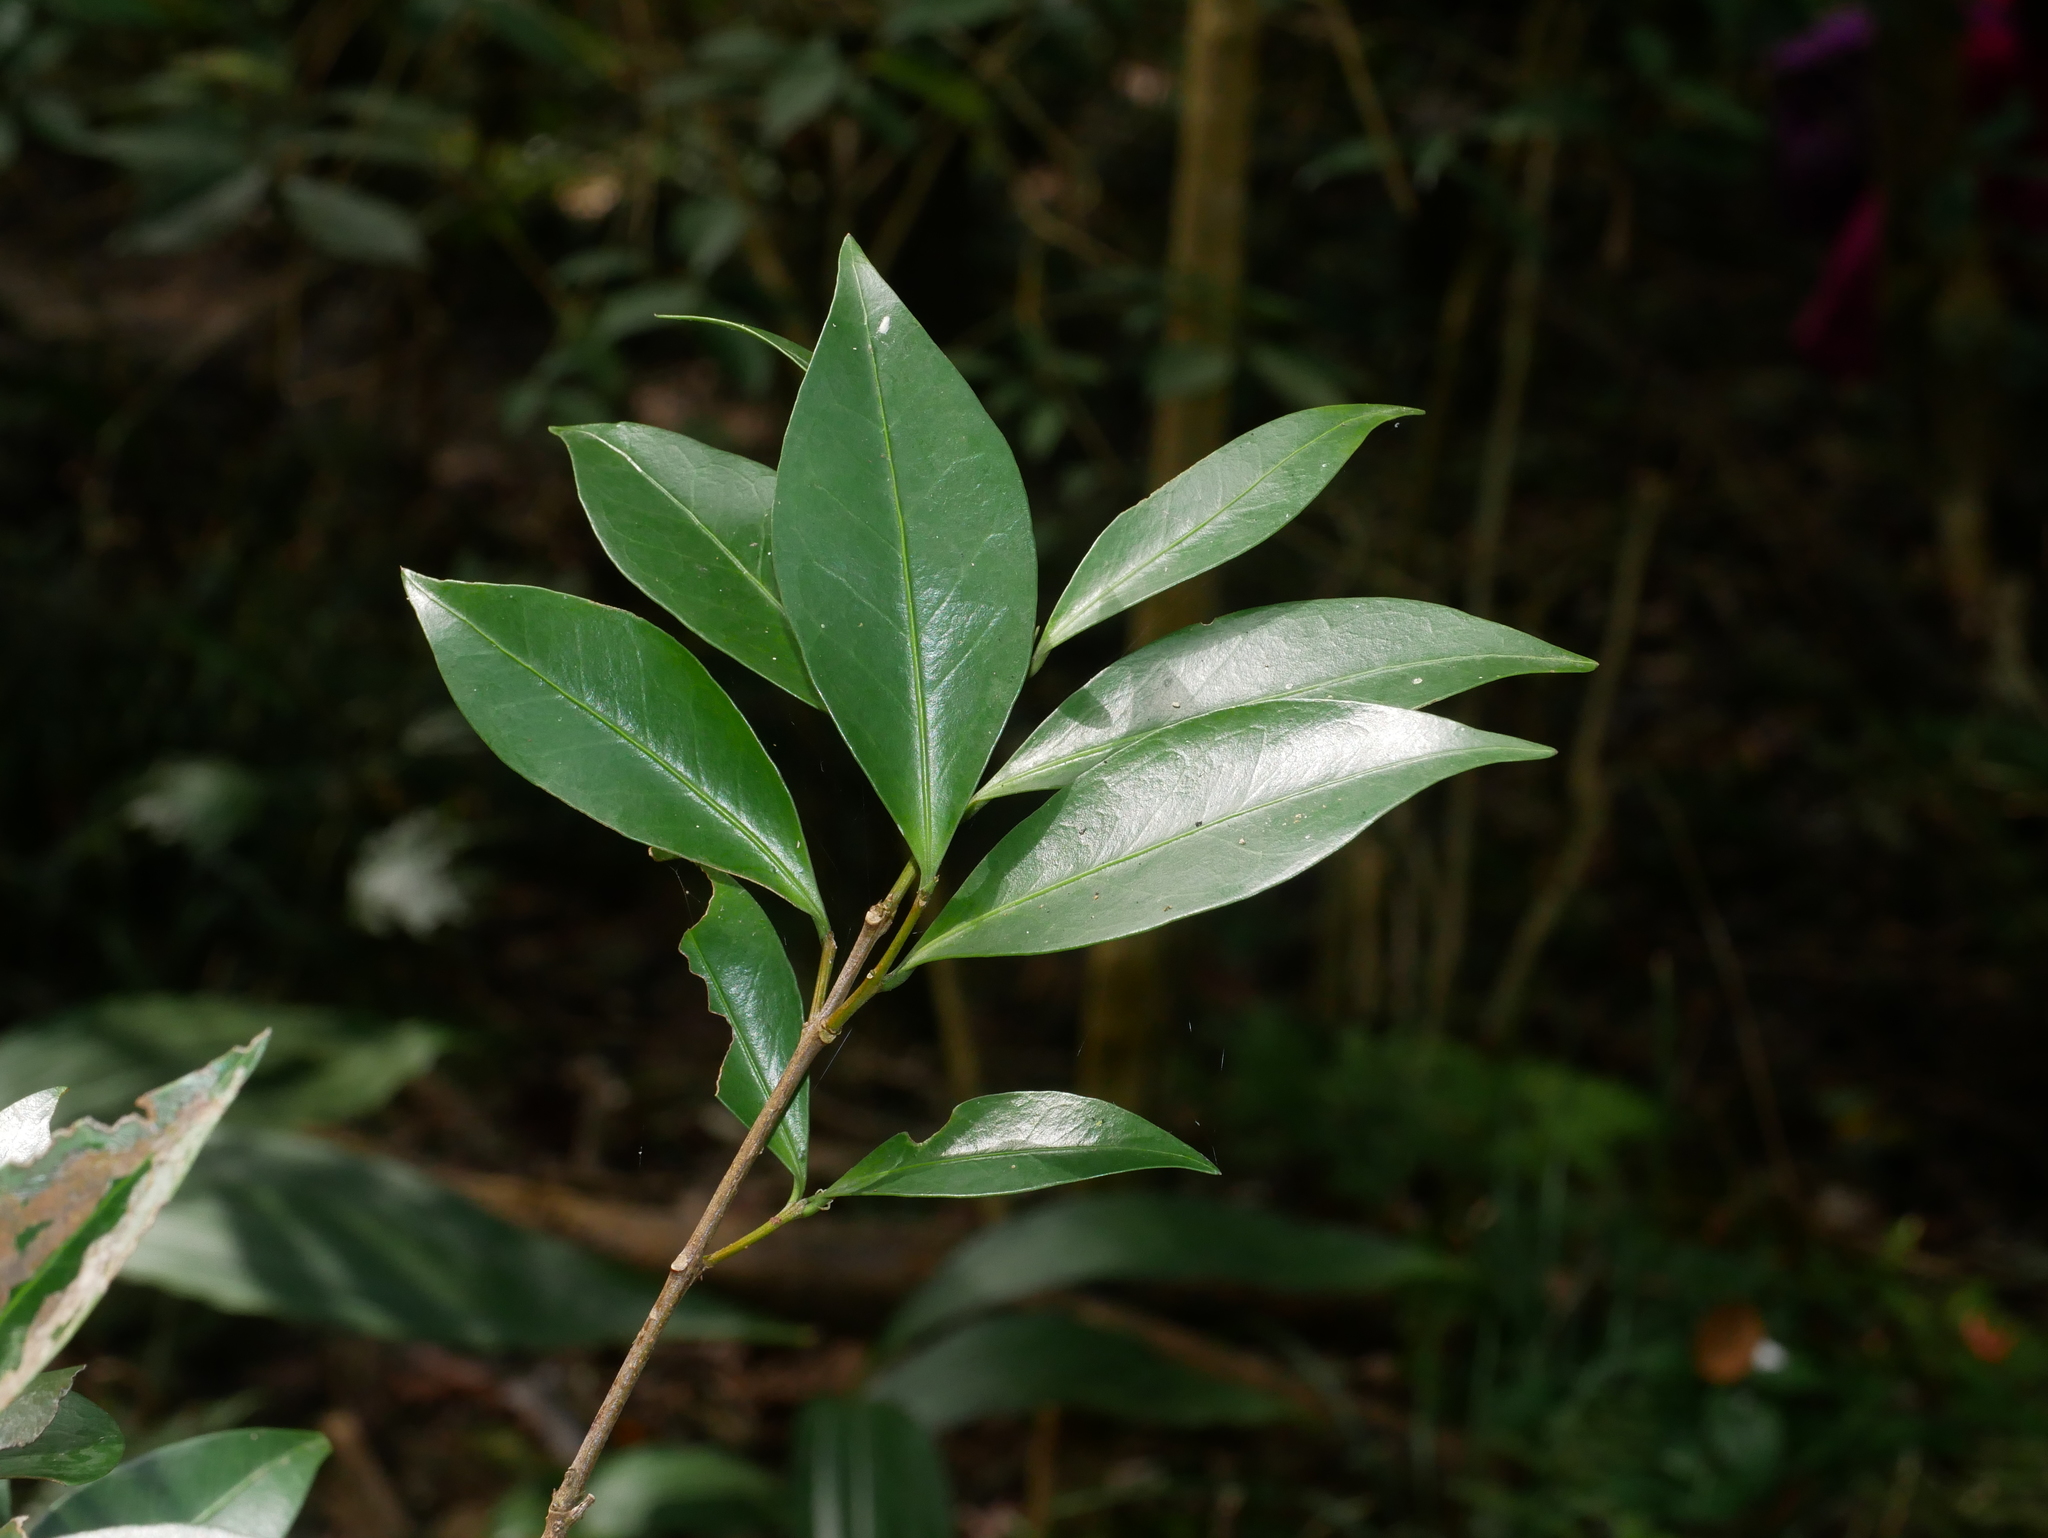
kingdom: Plantae
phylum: Tracheophyta
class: Magnoliopsida
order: Celastrales
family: Celastraceae
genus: Microtropis
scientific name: Microtropis yunnanensis
